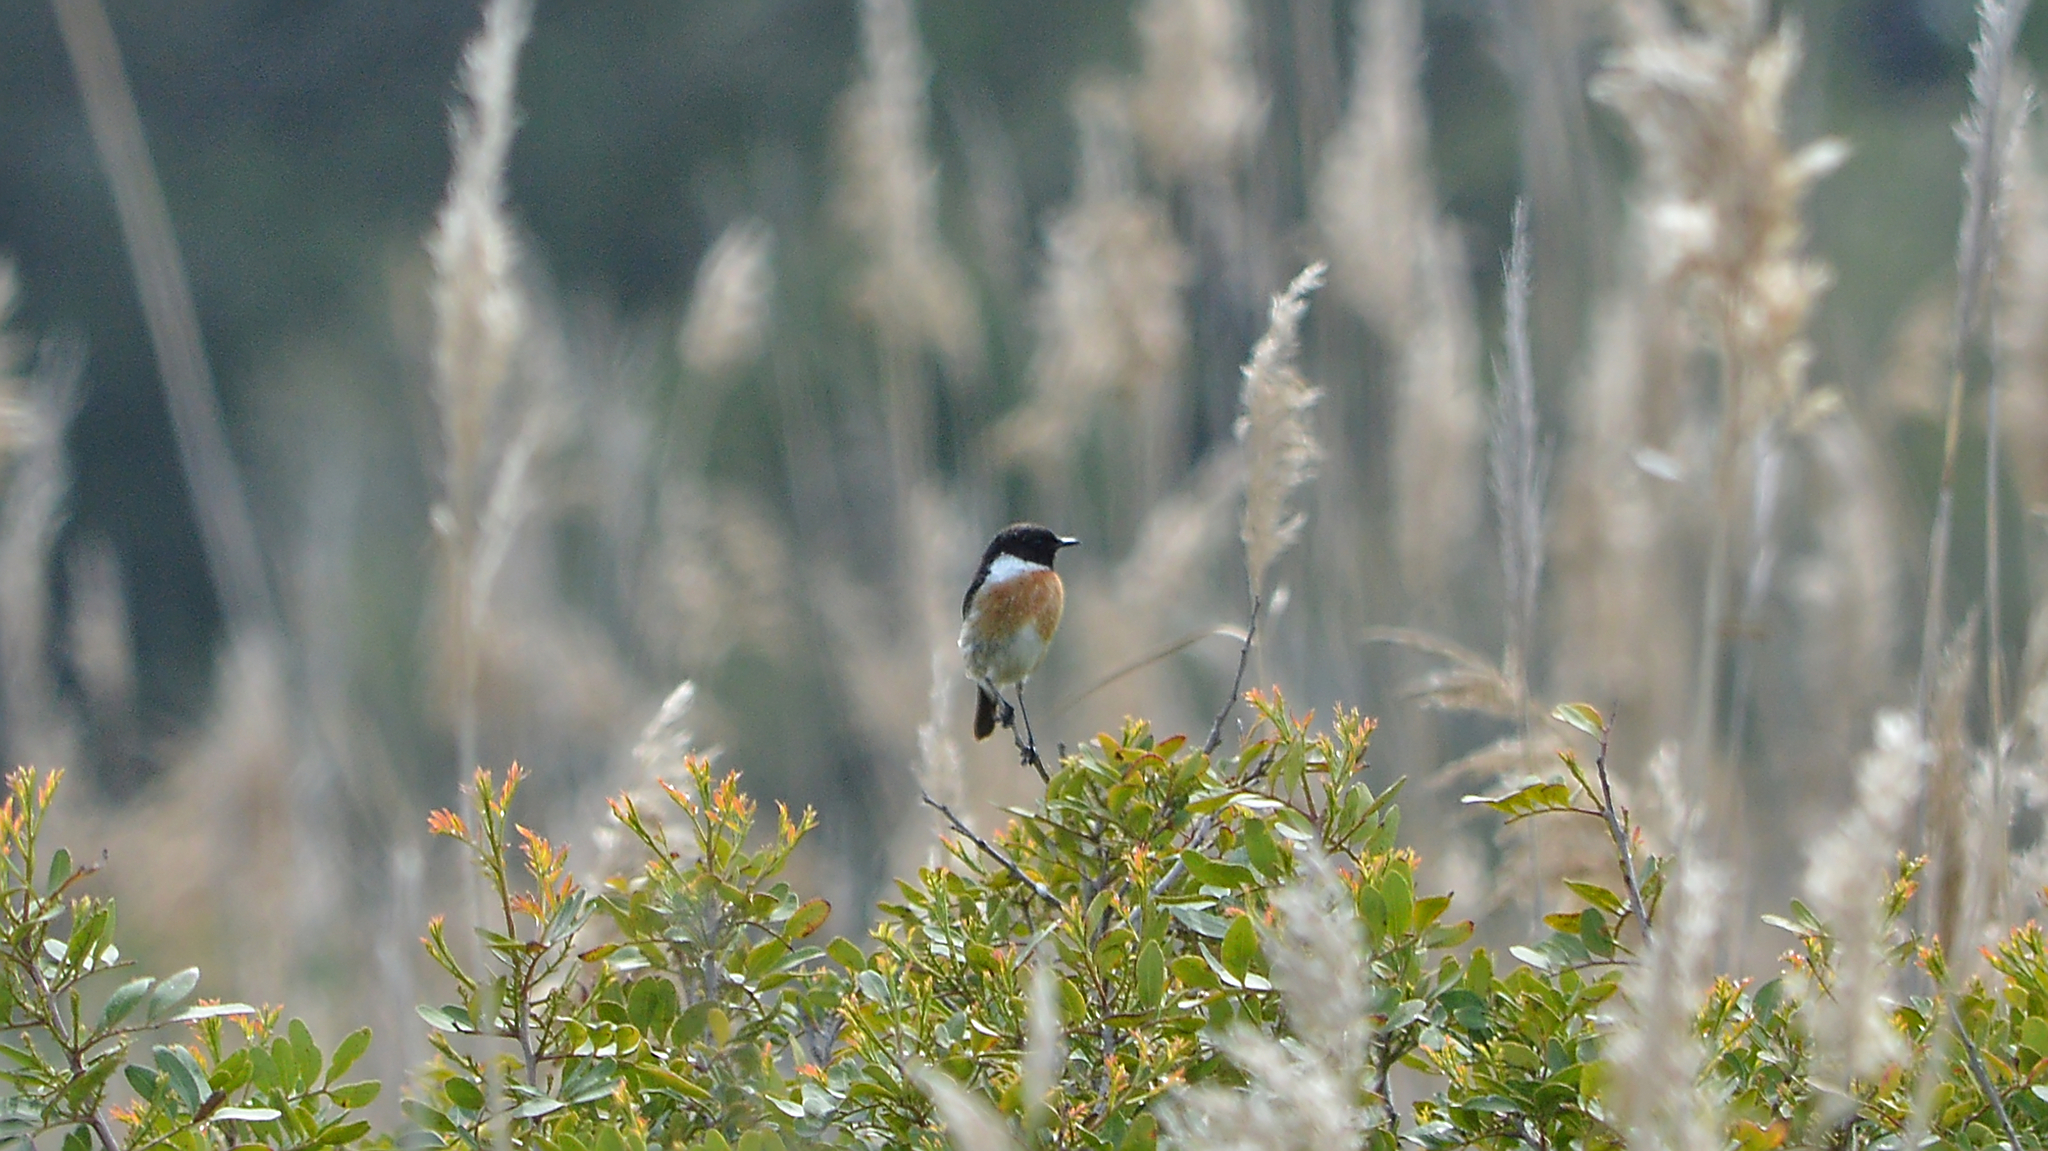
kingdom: Animalia
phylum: Chordata
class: Aves
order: Passeriformes
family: Muscicapidae
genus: Saxicola
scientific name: Saxicola rubicola
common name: European stonechat
